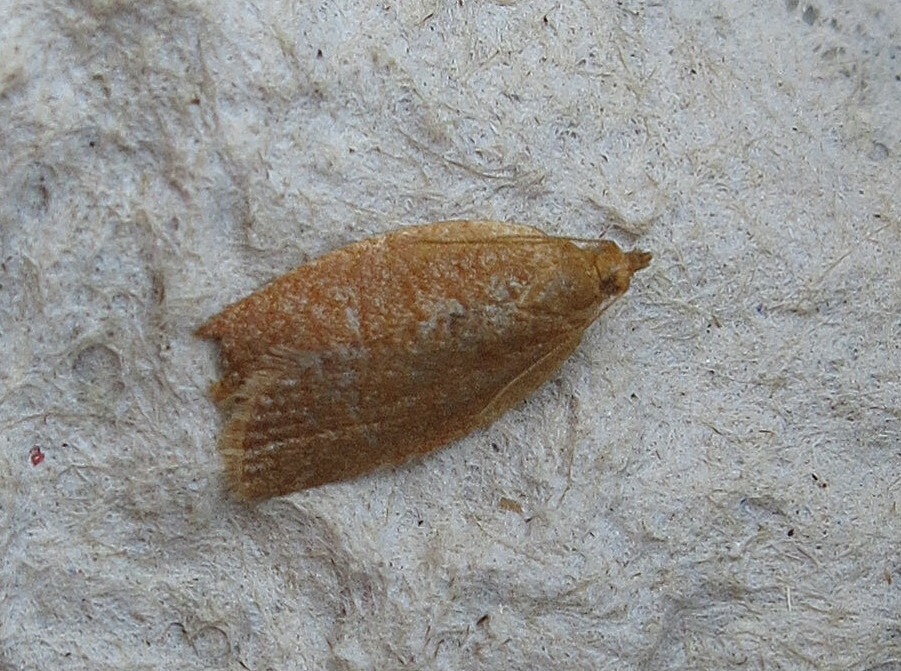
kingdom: Animalia
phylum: Arthropoda
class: Insecta
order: Lepidoptera
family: Tortricidae
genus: Clepsis
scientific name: Clepsis consimilana
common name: Privet tortrix
